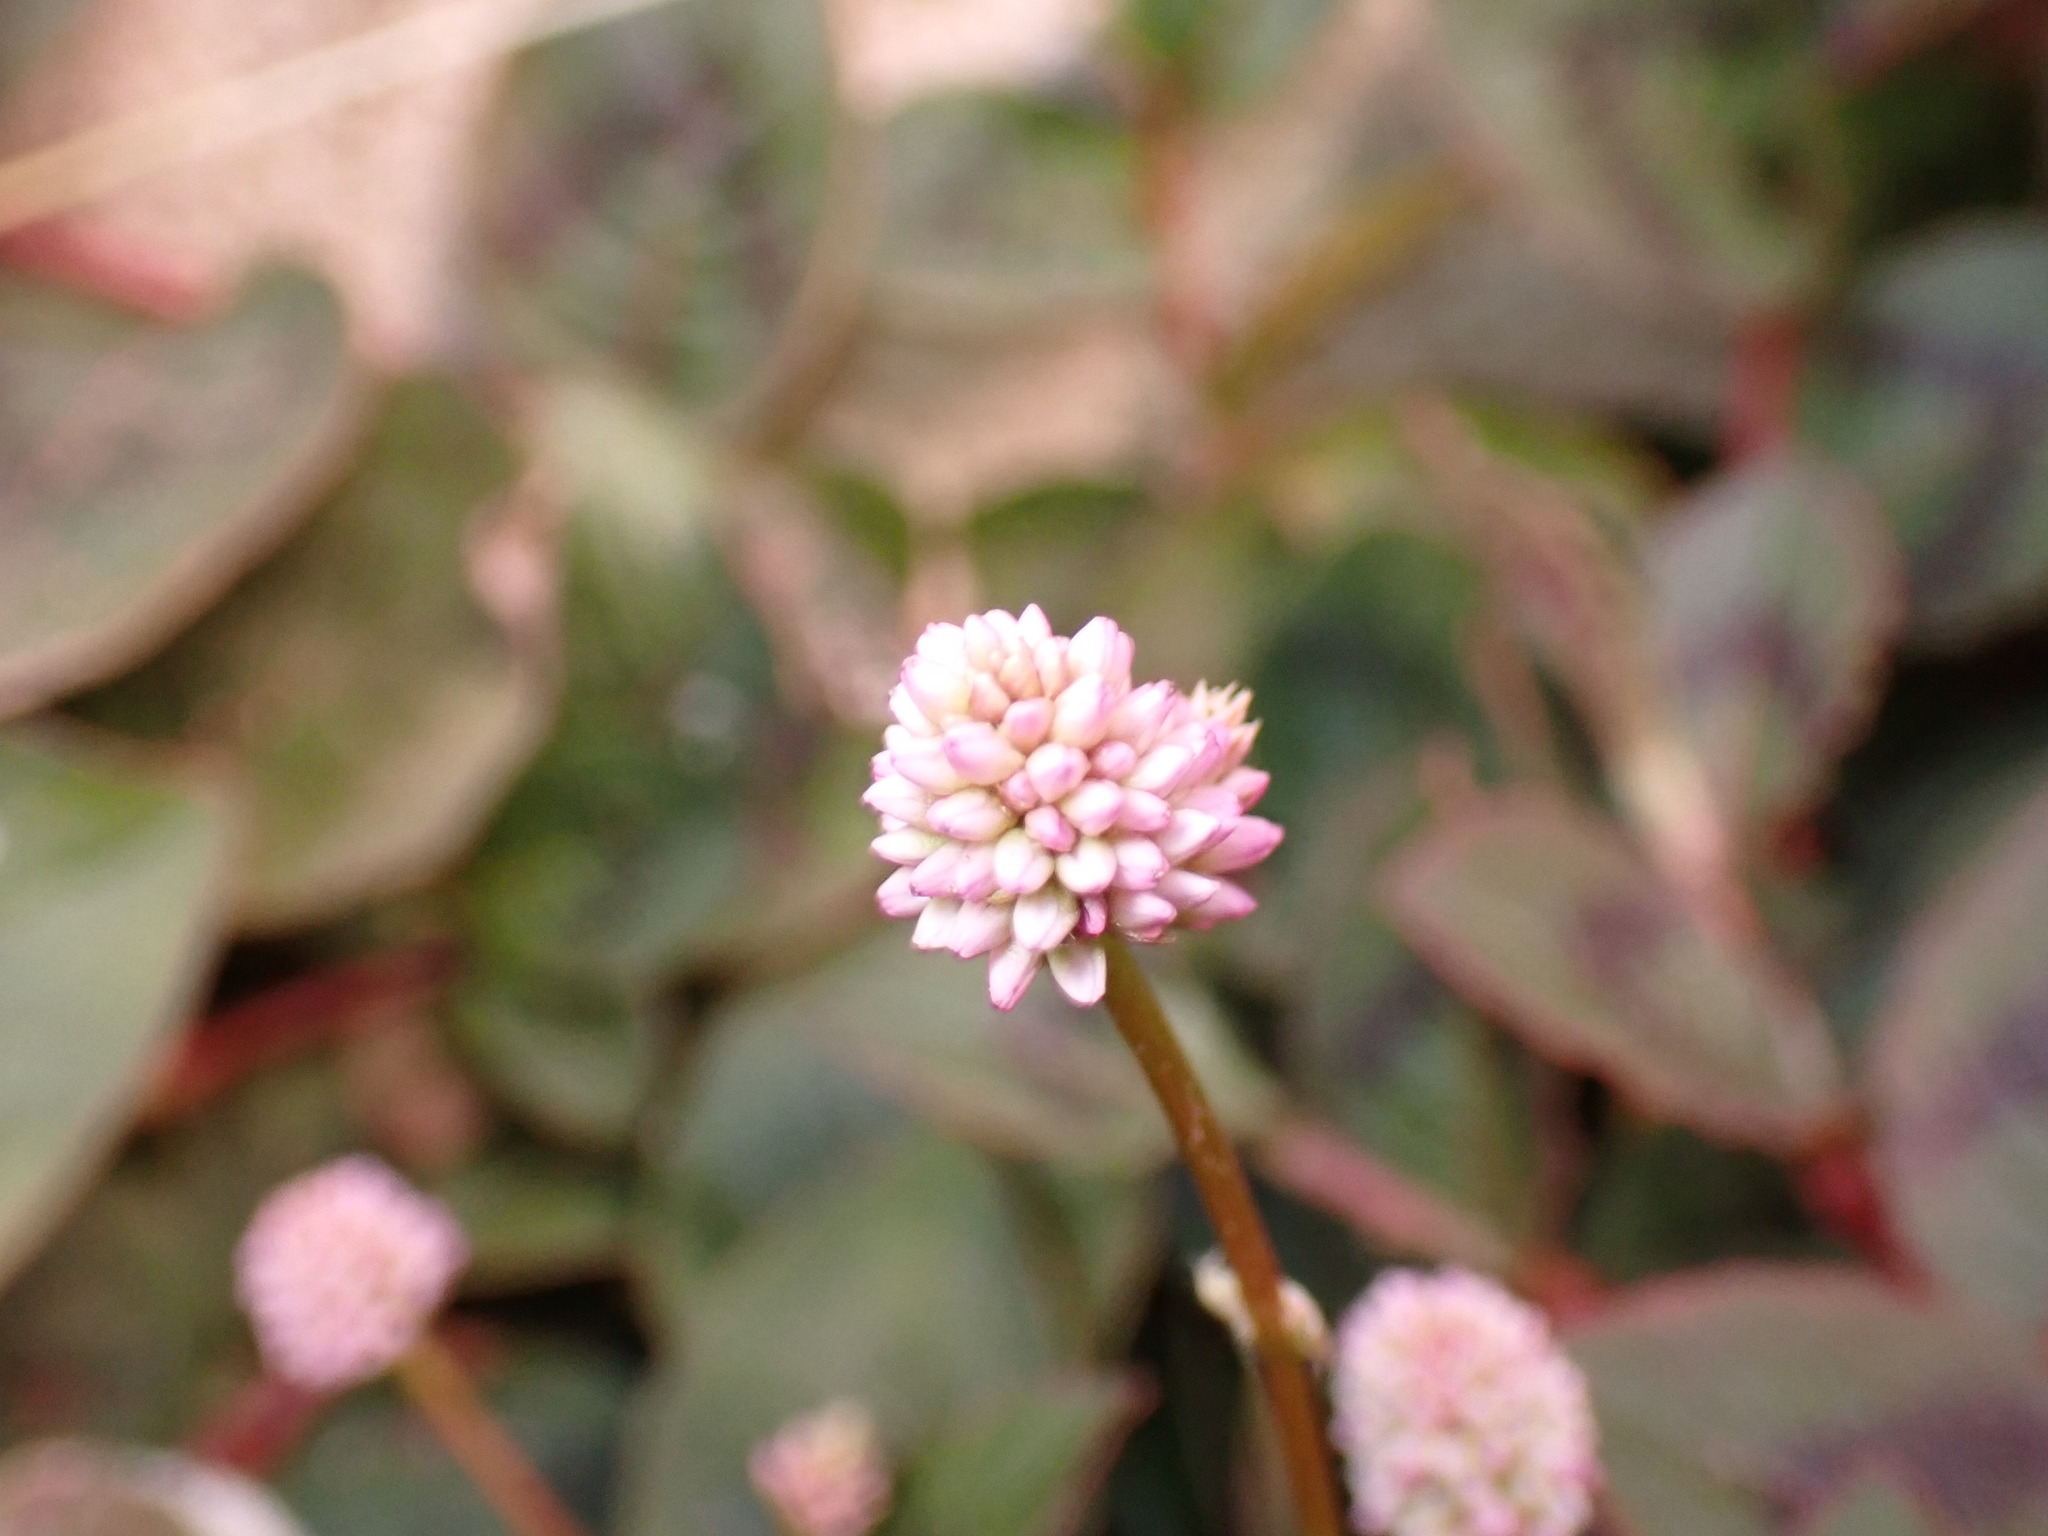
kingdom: Plantae
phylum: Tracheophyta
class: Magnoliopsida
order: Caryophyllales
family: Polygonaceae
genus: Persicaria
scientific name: Persicaria capitata
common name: Pinkhead smartweed
